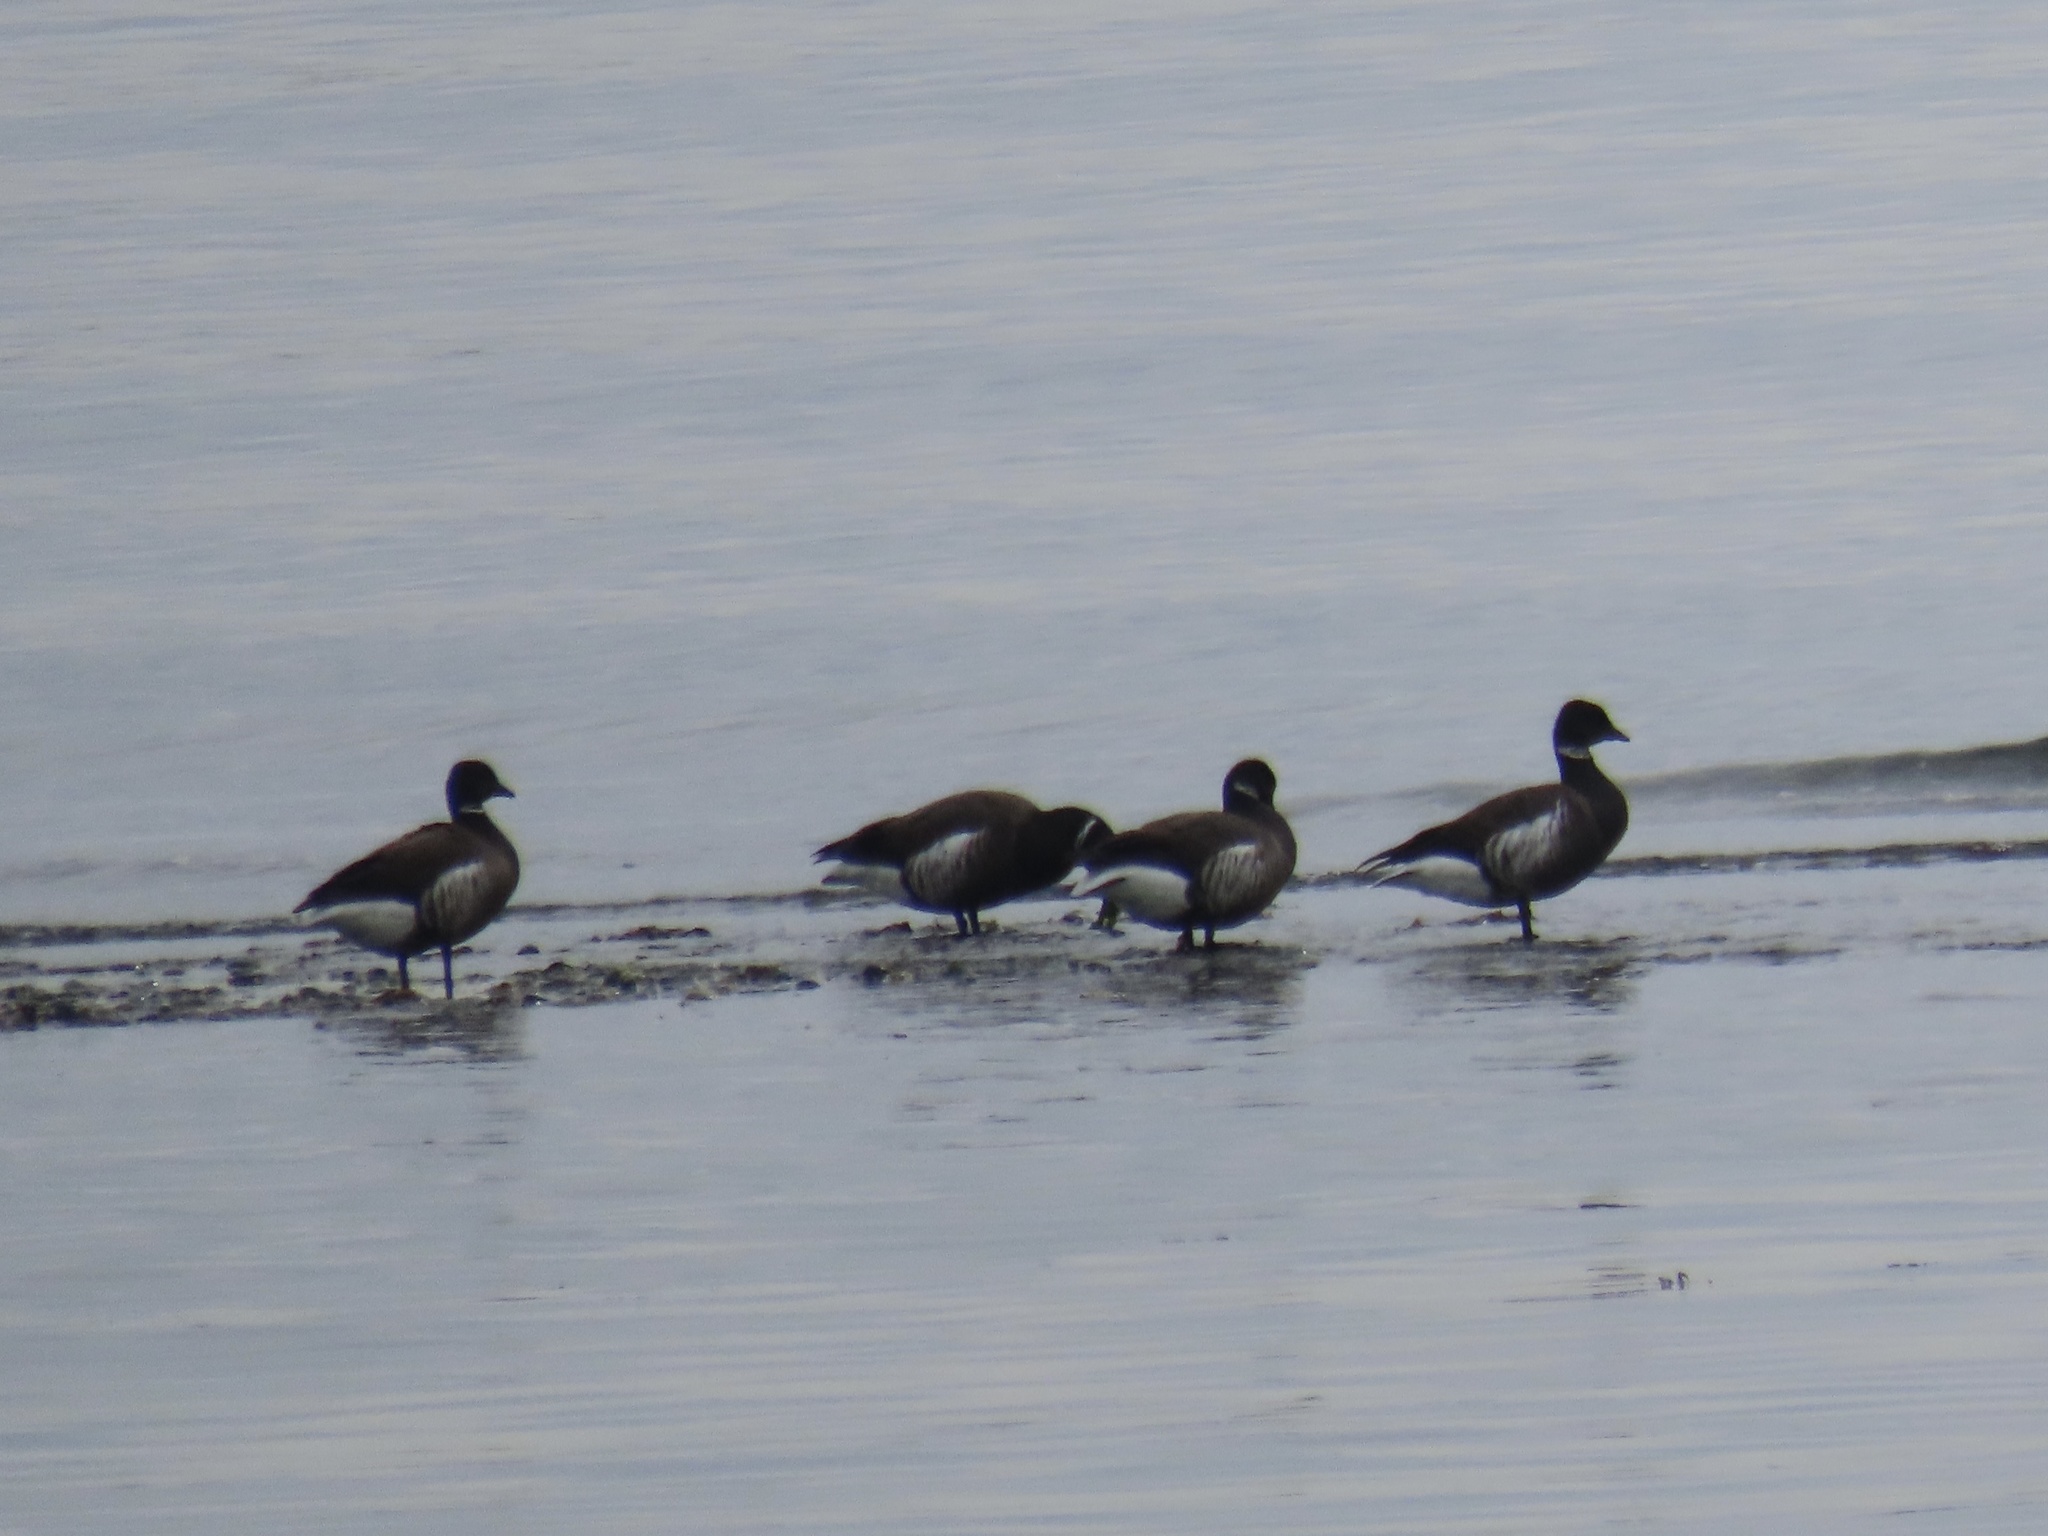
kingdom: Animalia
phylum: Chordata
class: Aves
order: Anseriformes
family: Anatidae
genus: Branta
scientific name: Branta bernicla
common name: Brant goose
